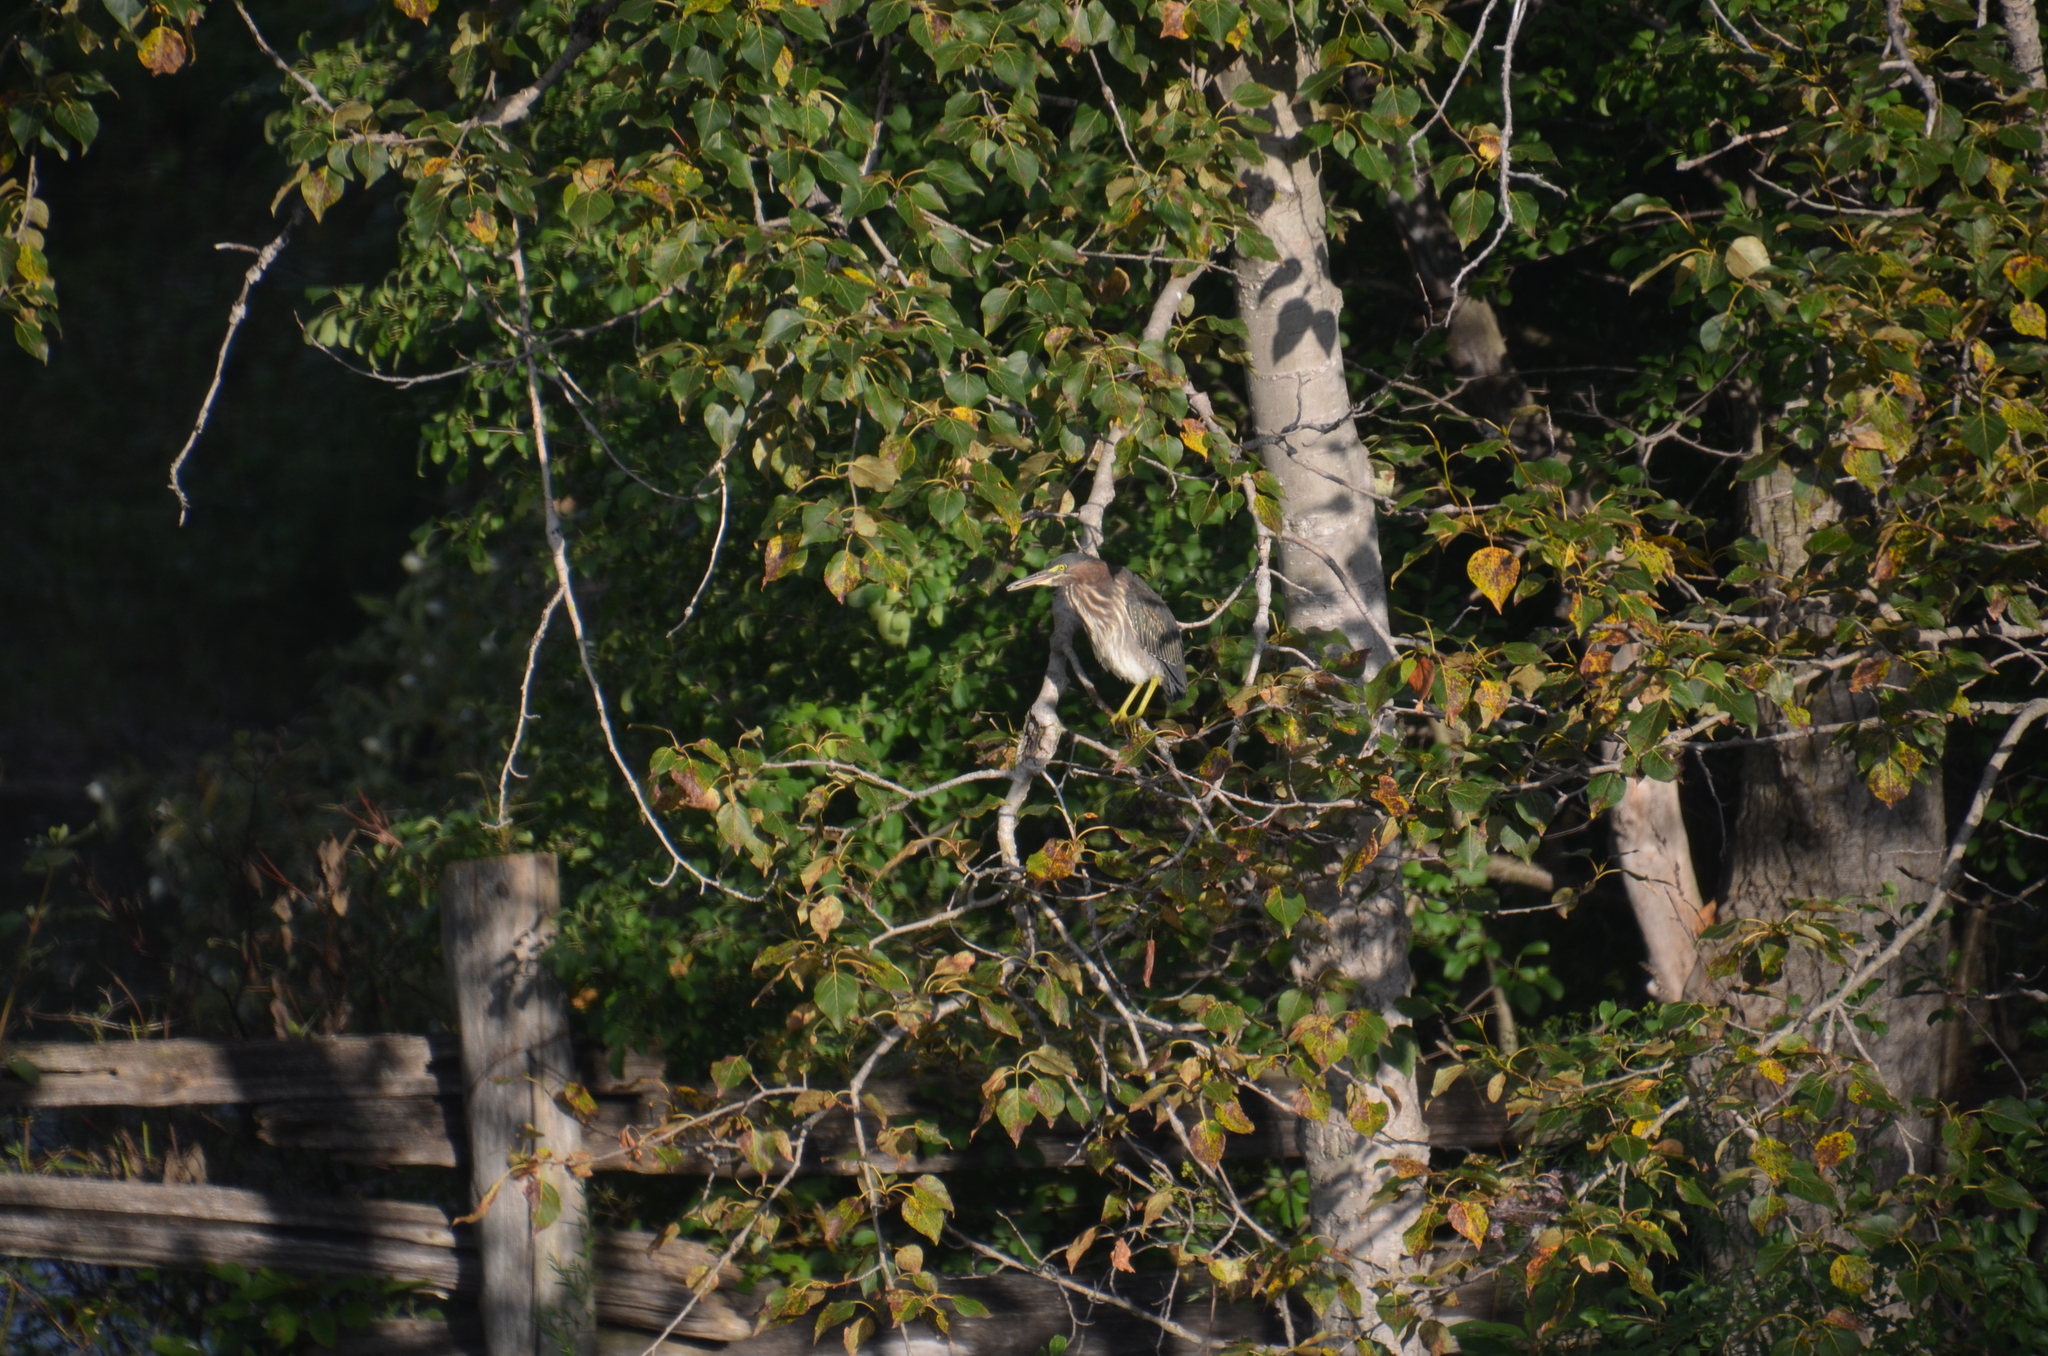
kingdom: Animalia
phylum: Chordata
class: Aves
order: Pelecaniformes
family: Ardeidae
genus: Butorides
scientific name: Butorides virescens
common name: Green heron
